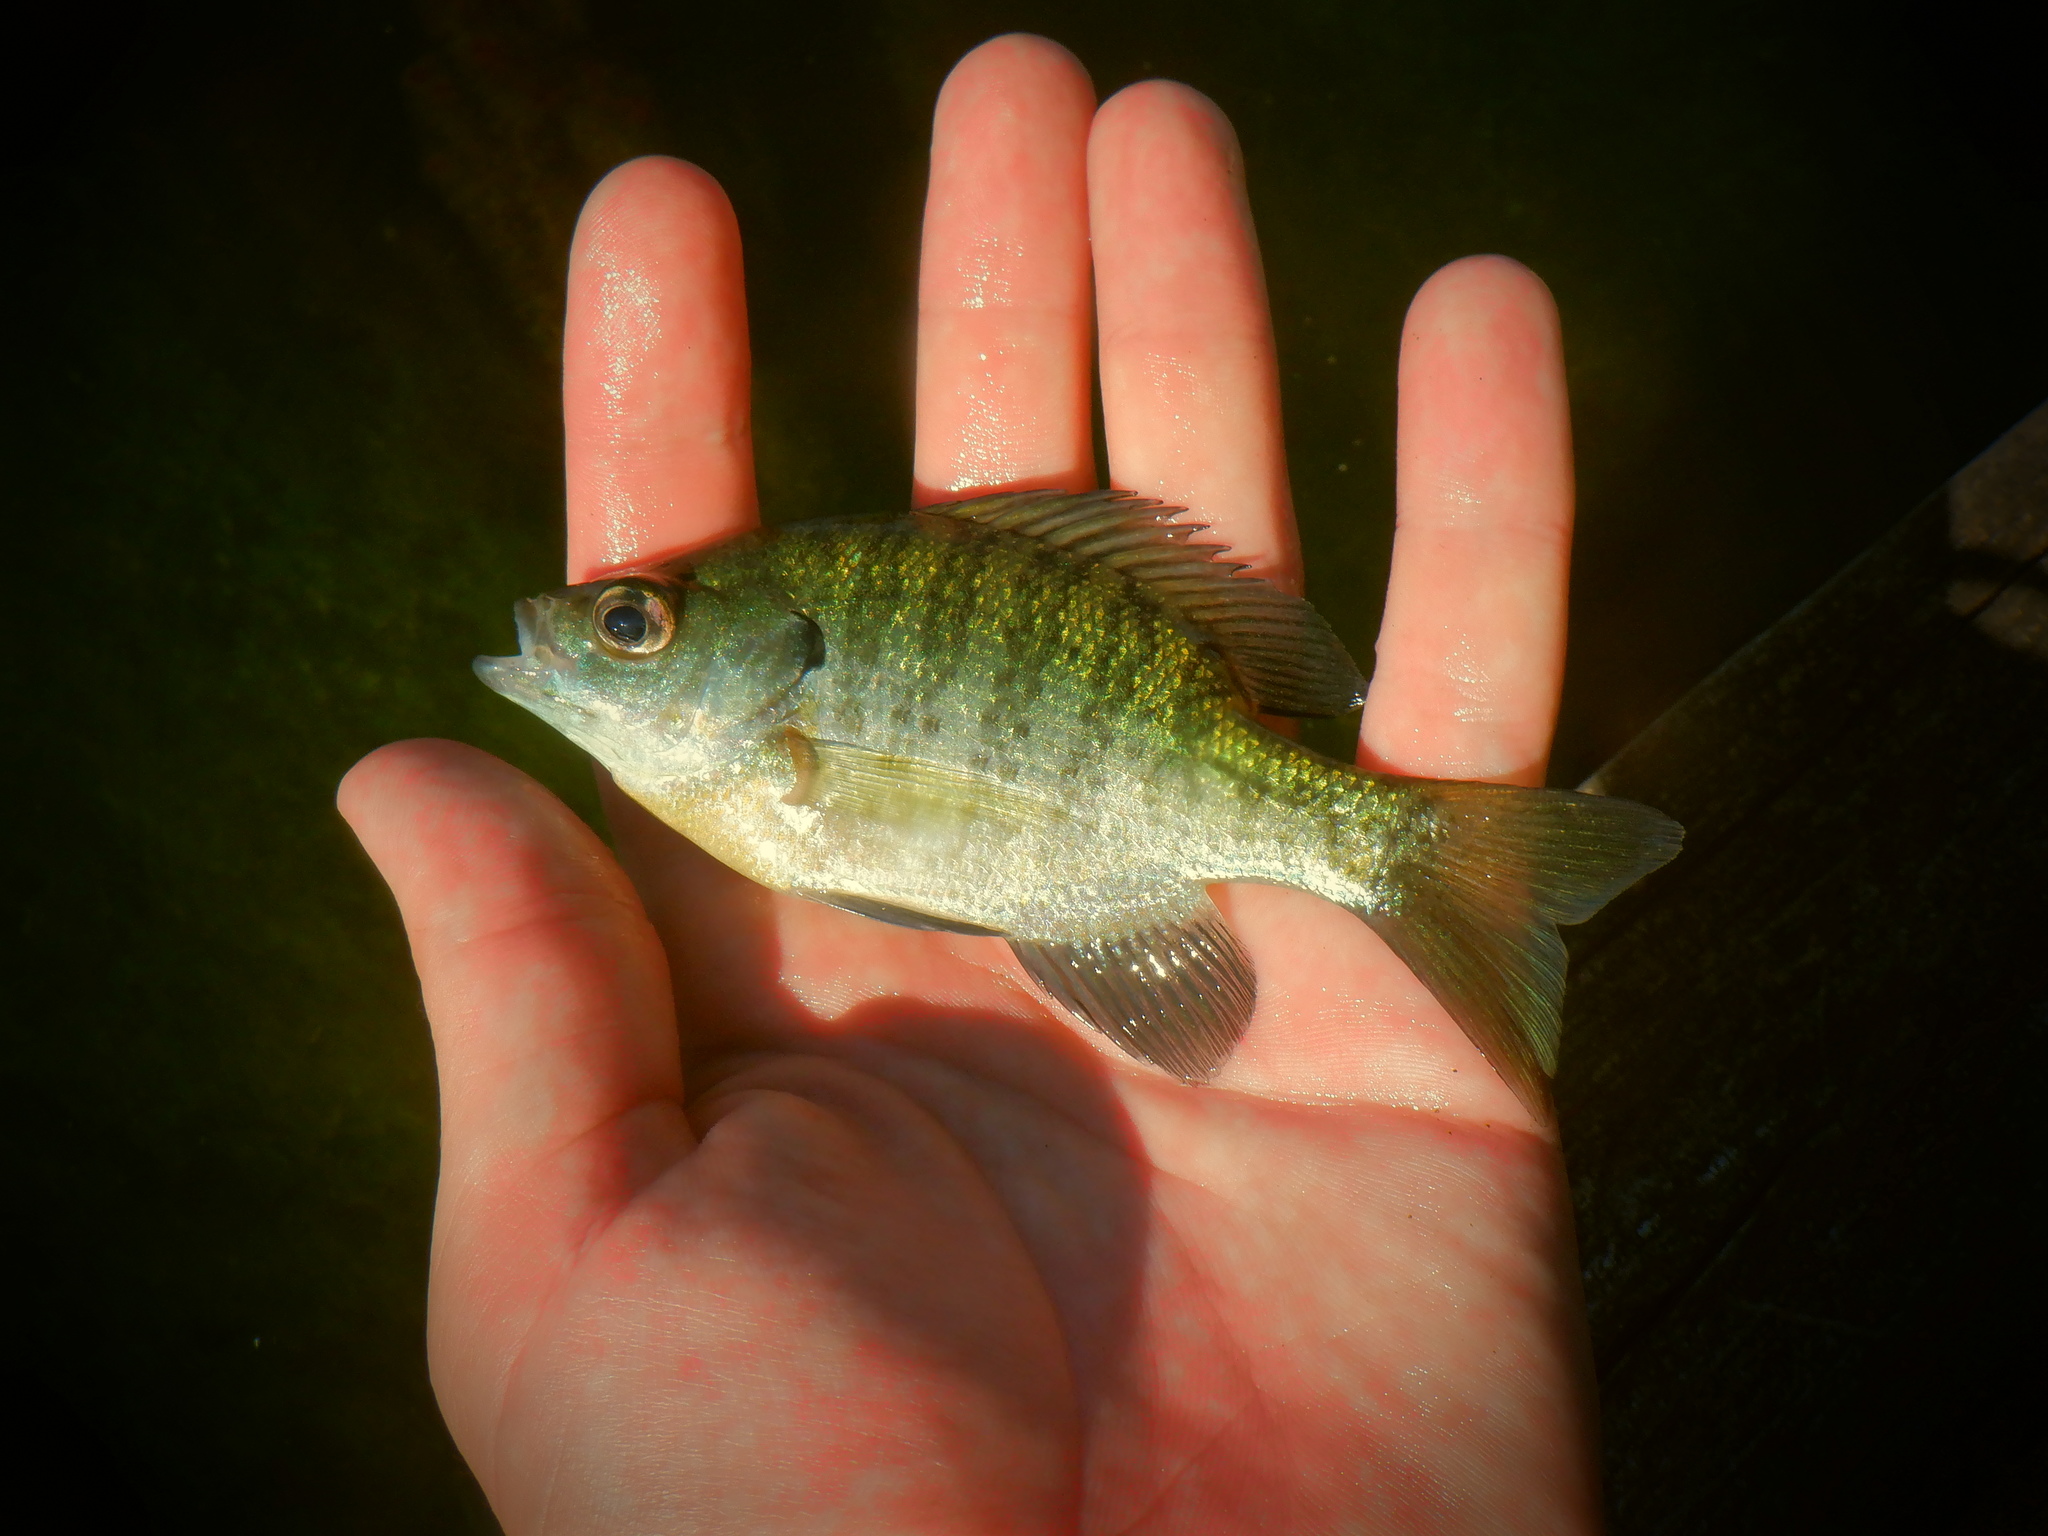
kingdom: Animalia
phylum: Chordata
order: Perciformes
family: Centrarchidae
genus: Lepomis
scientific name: Lepomis macrochirus
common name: Bluegill
